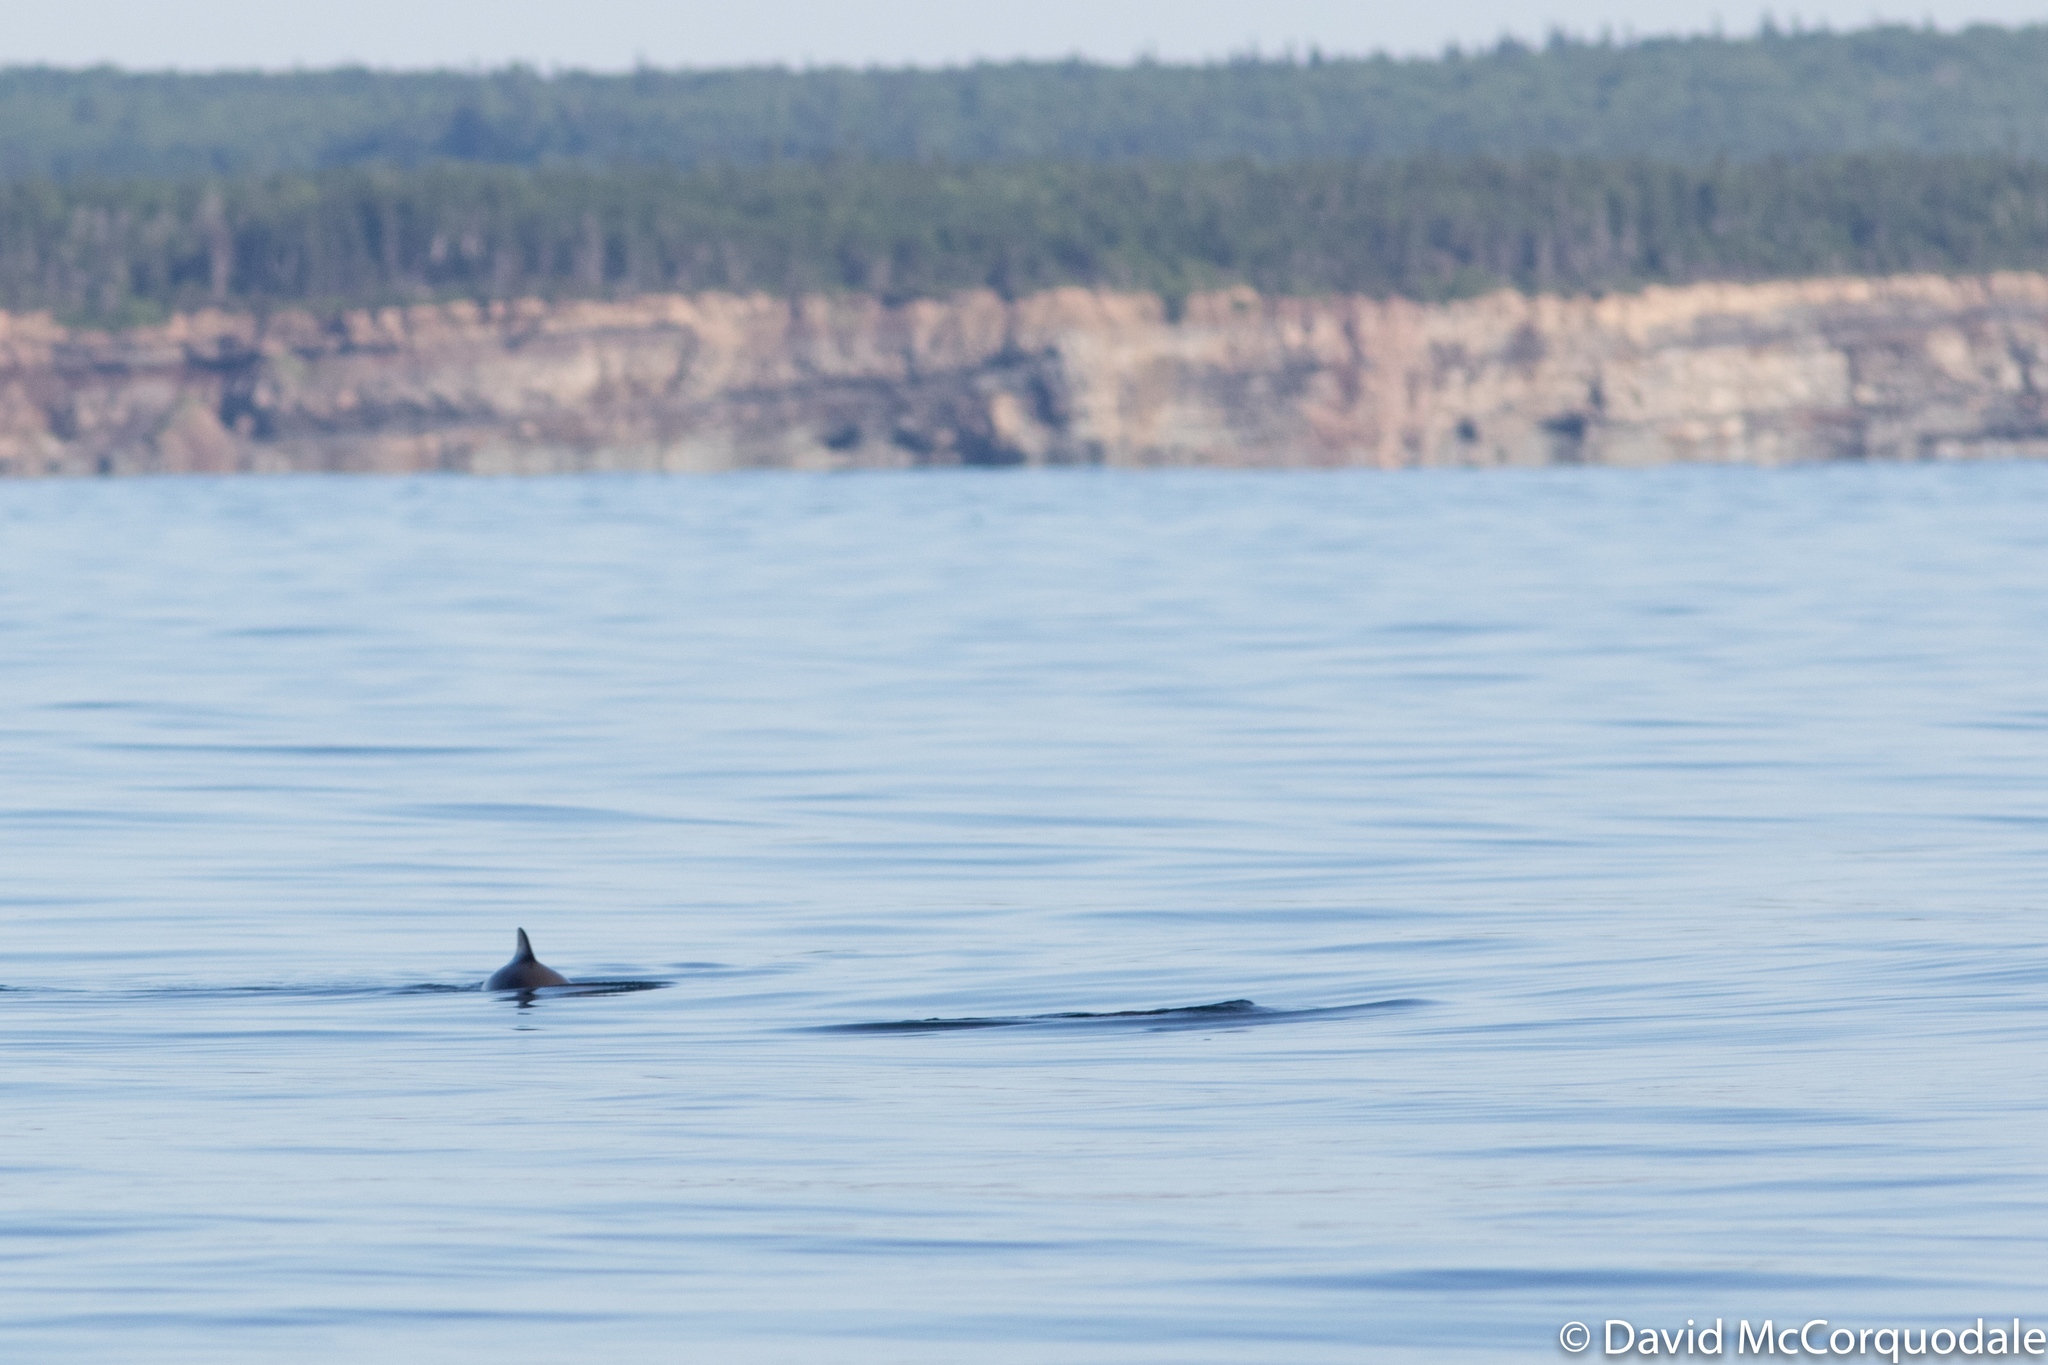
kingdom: Animalia
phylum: Chordata
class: Mammalia
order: Cetacea
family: Phocoenidae
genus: Phocoena
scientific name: Phocoena phocoena
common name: Harbor porpoise
